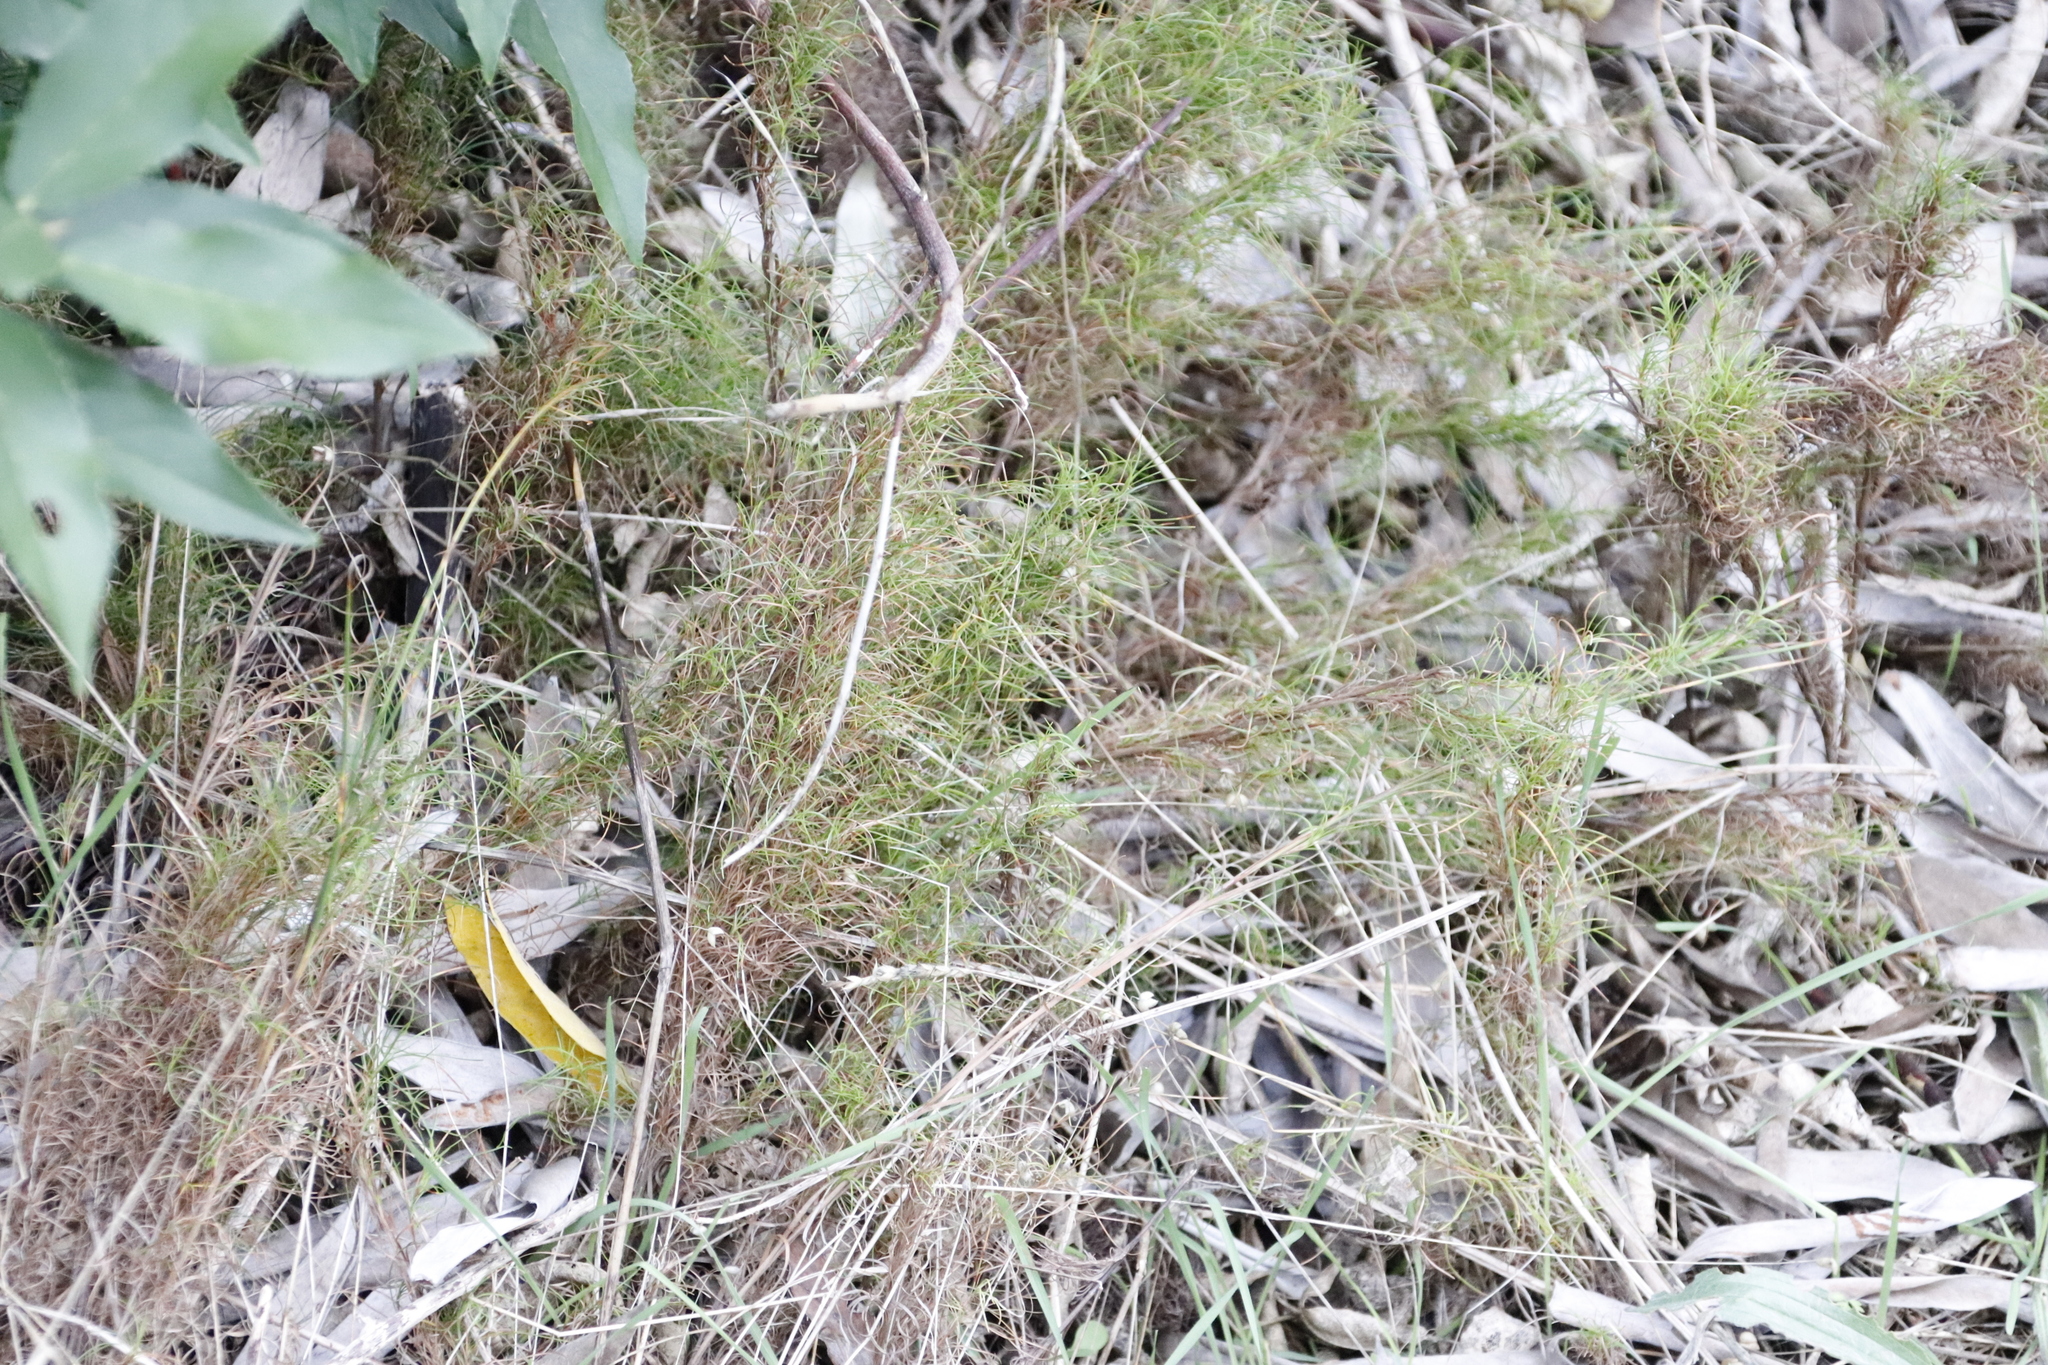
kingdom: Plantae
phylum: Tracheophyta
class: Liliopsida
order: Poales
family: Cyperaceae
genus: Ficinia
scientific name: Ficinia ramosissima
